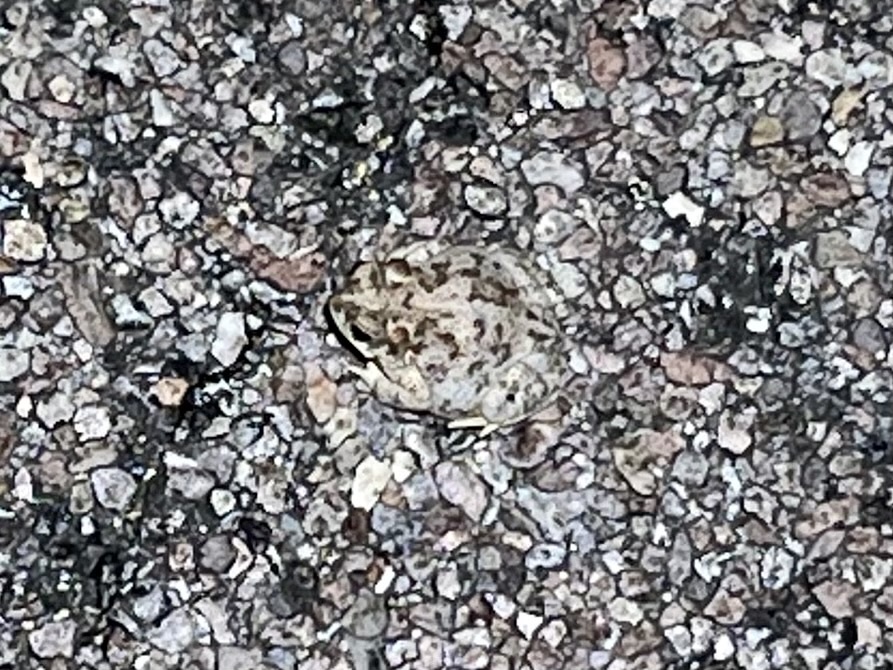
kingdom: Animalia
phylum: Chordata
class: Amphibia
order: Anura
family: Bufonidae
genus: Anaxyrus
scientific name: Anaxyrus punctatus
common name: Red-spotted toad
